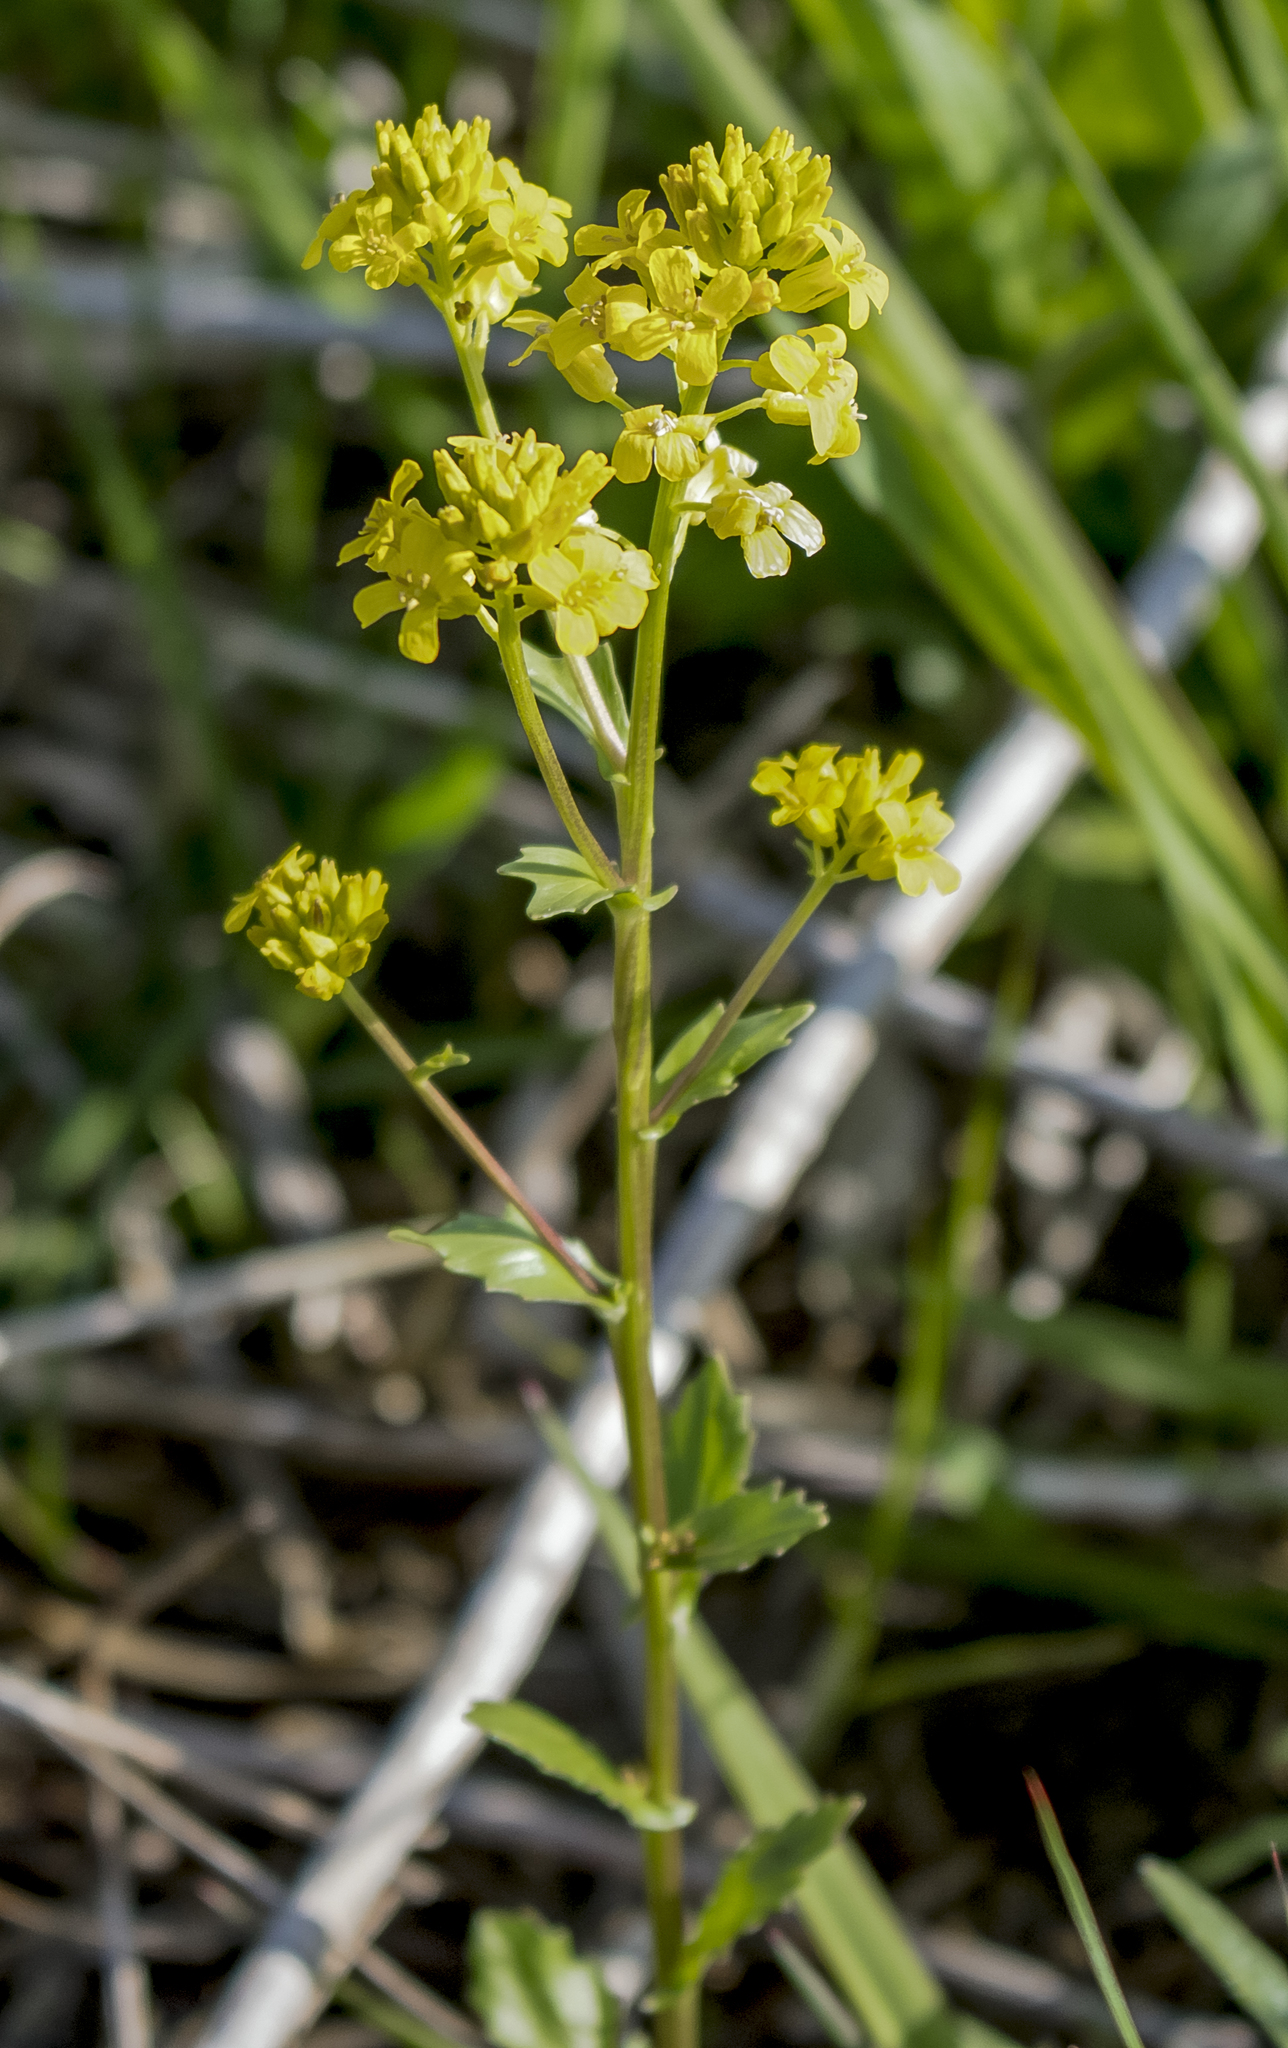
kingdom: Plantae
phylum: Tracheophyta
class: Magnoliopsida
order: Brassicales
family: Brassicaceae
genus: Barbarea
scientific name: Barbarea vulgaris
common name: Cressy-greens
